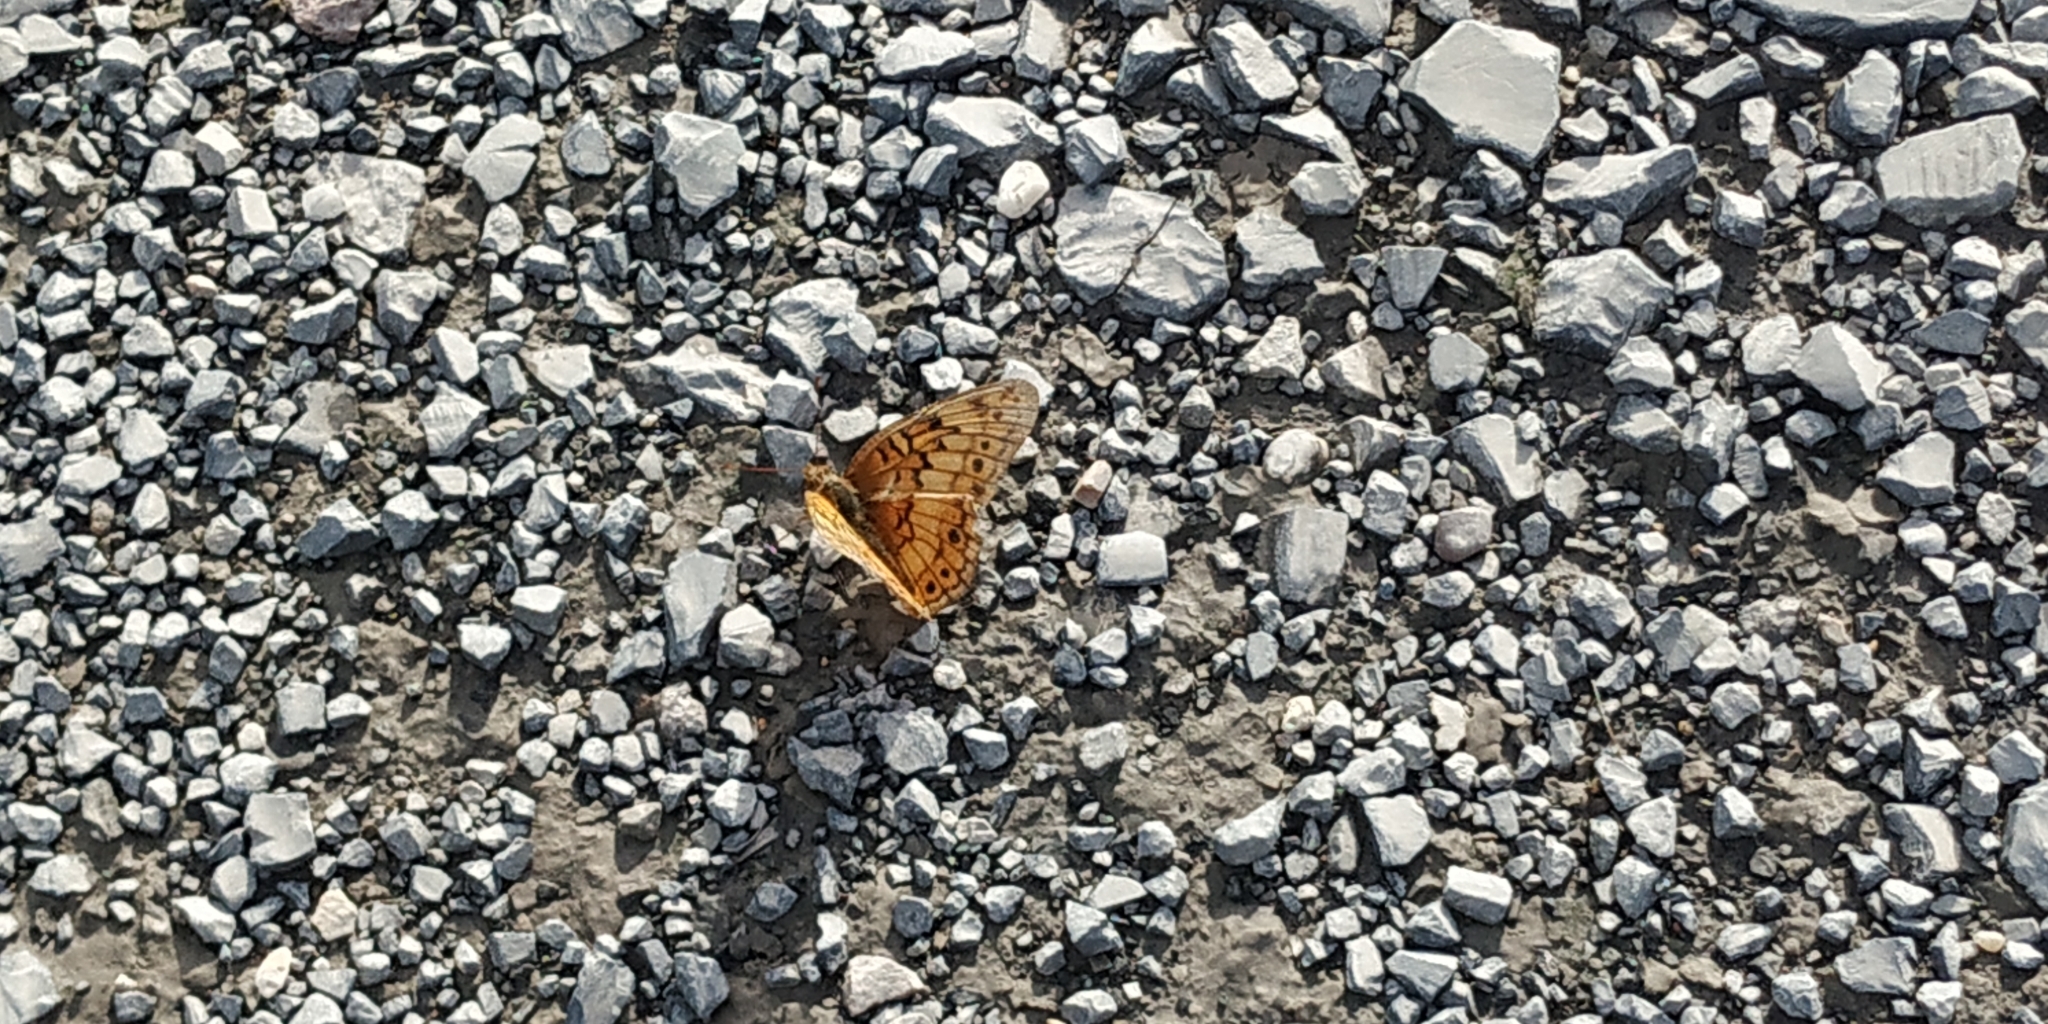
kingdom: Animalia
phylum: Arthropoda
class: Insecta
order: Lepidoptera
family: Nymphalidae
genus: Euptoieta
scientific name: Euptoieta claudia
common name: Variegated fritillary
